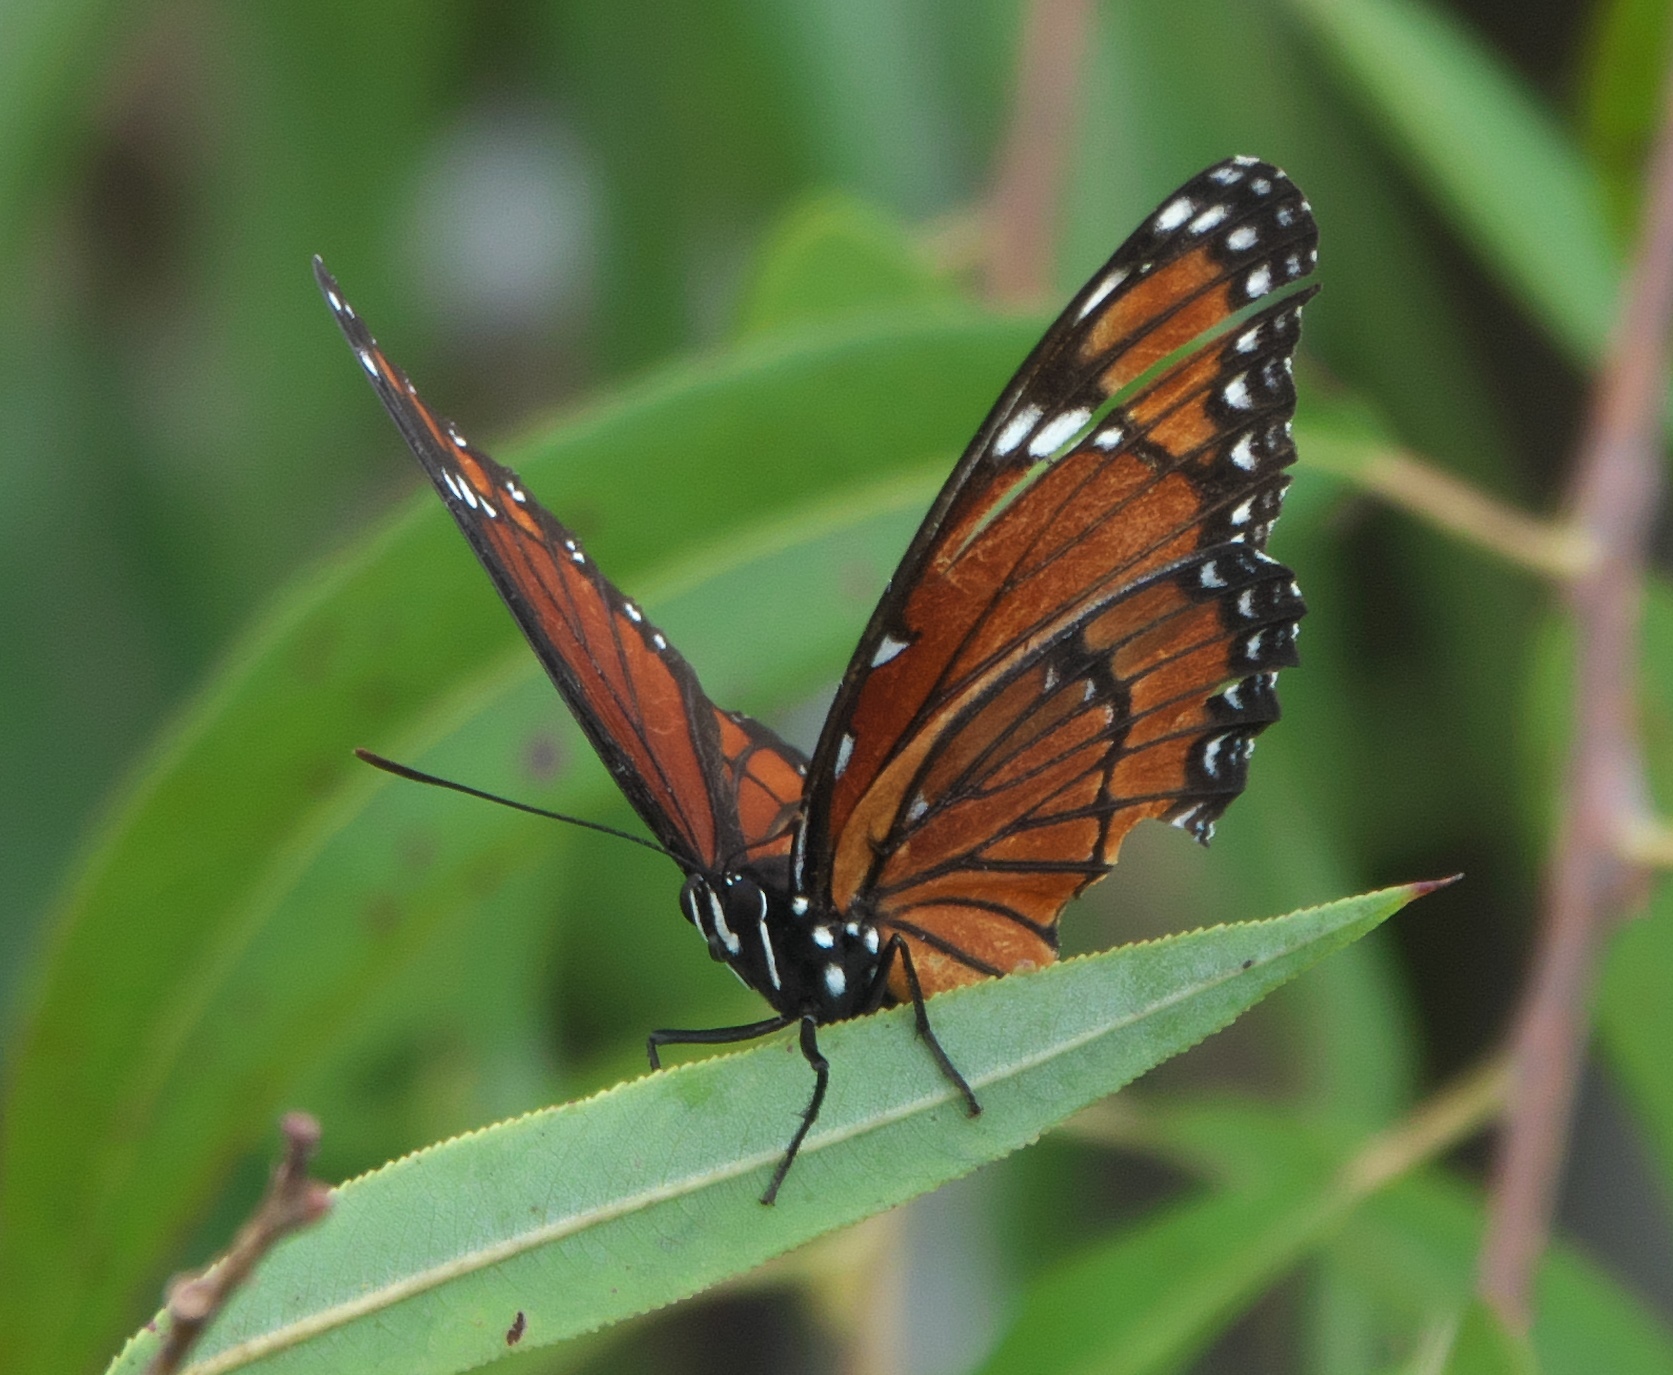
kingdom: Animalia
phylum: Arthropoda
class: Insecta
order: Lepidoptera
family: Nymphalidae
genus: Limenitis
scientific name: Limenitis archippus
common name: Viceroy
